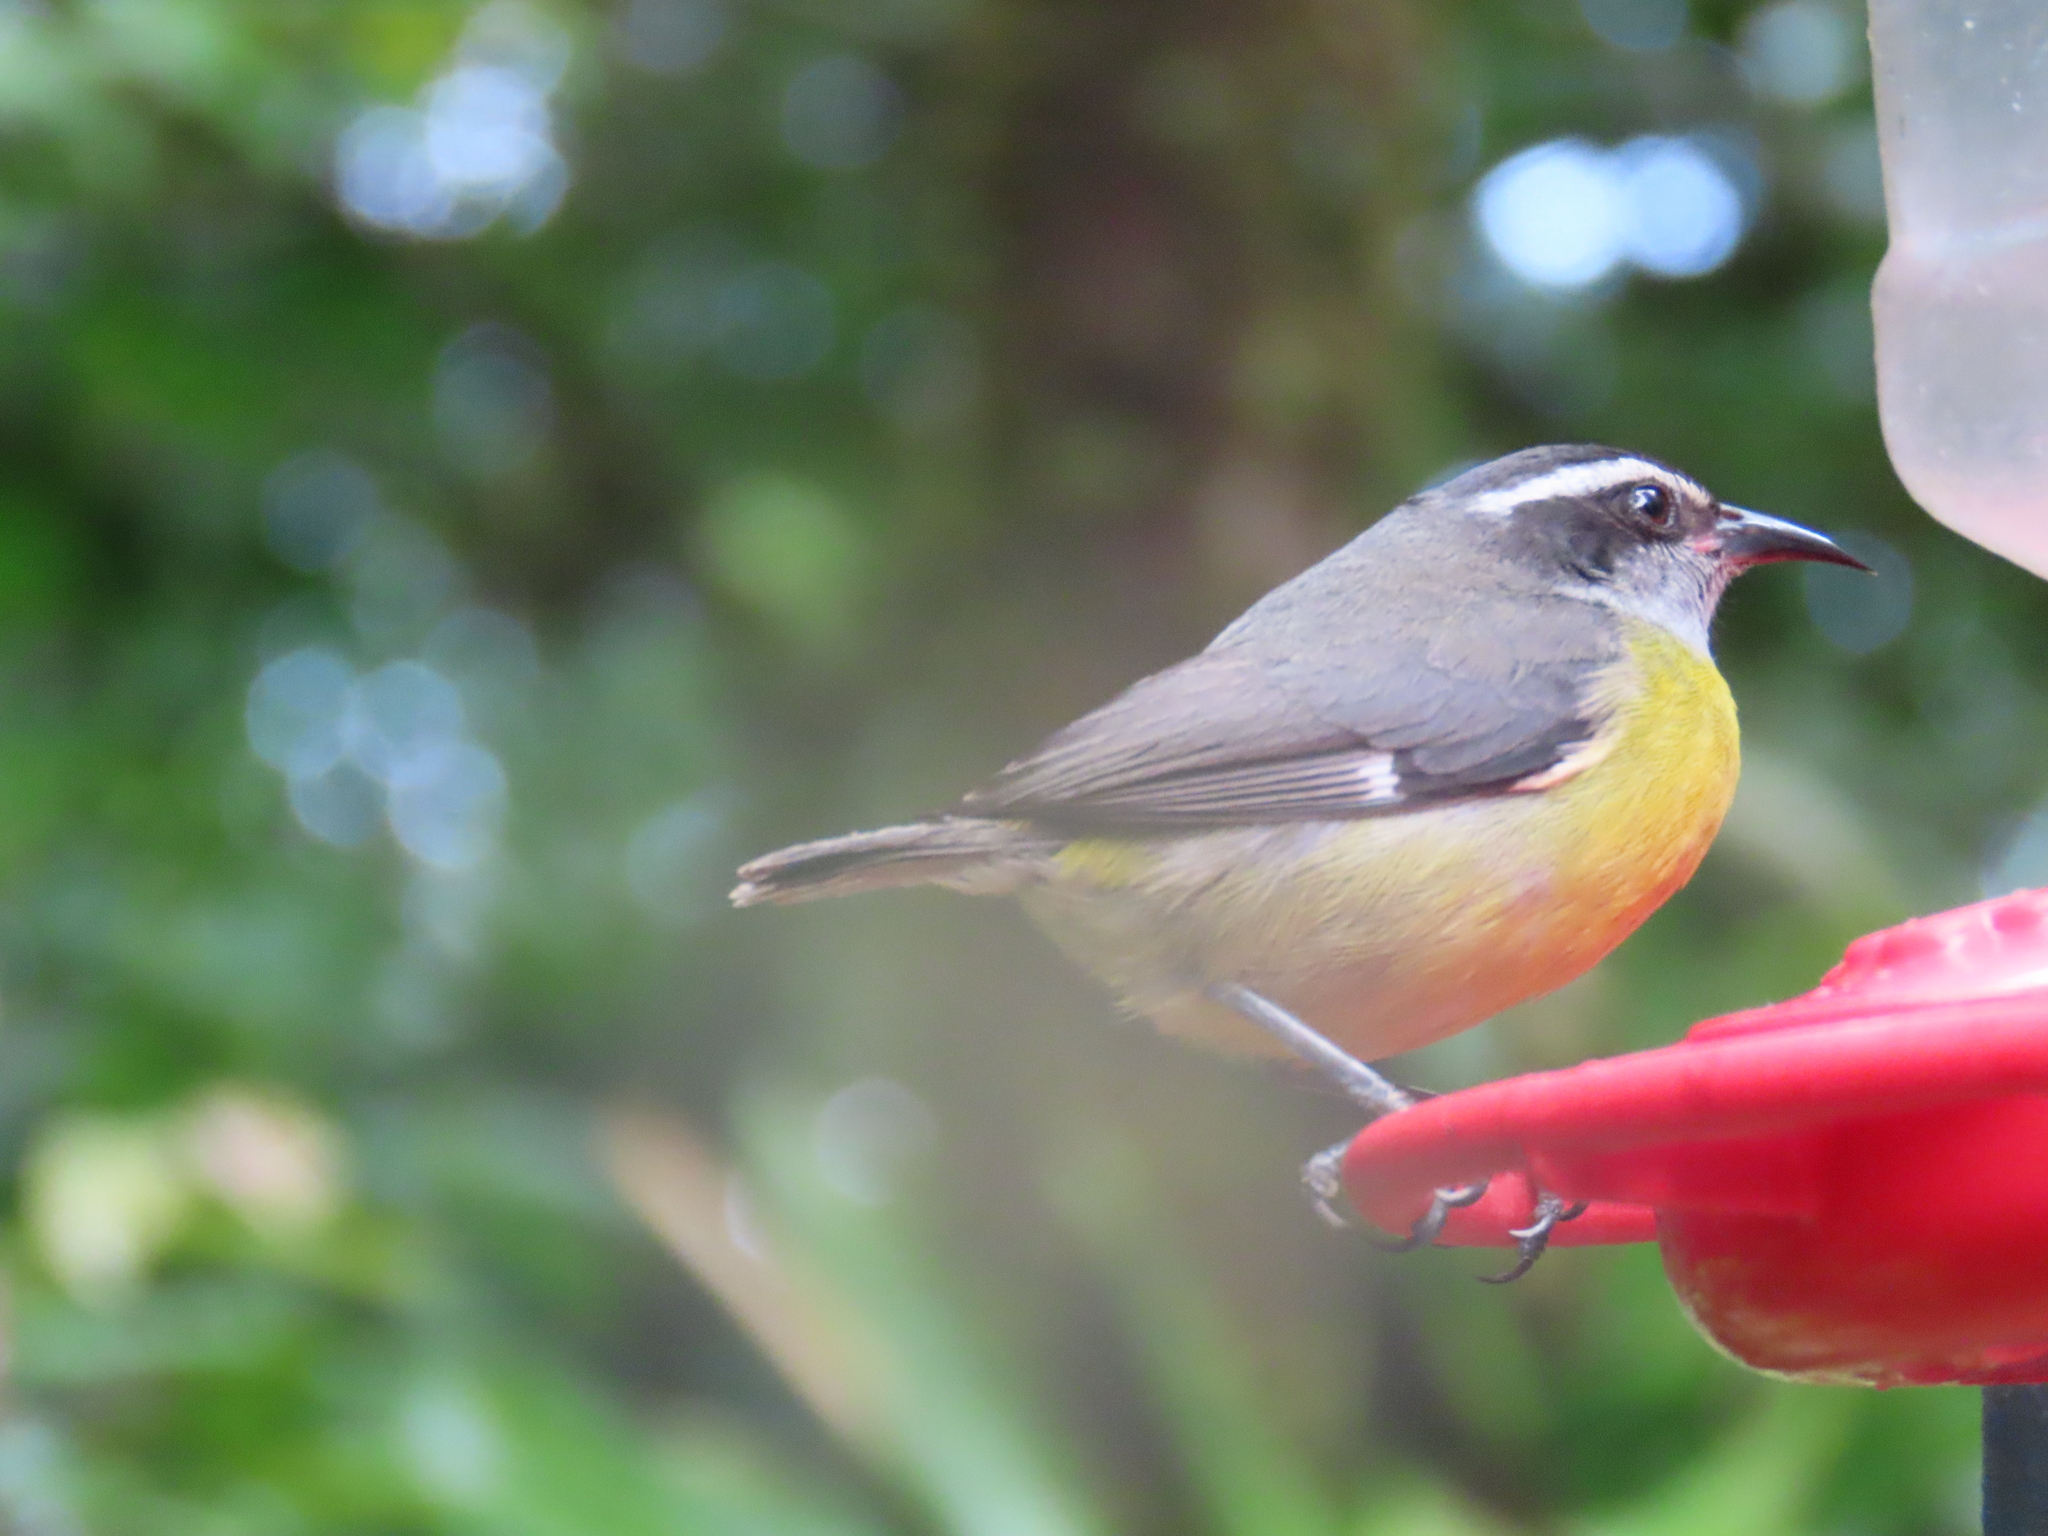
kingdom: Animalia
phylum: Chordata
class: Aves
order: Passeriformes
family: Thraupidae
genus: Coereba
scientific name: Coereba flaveola
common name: Bananaquit
